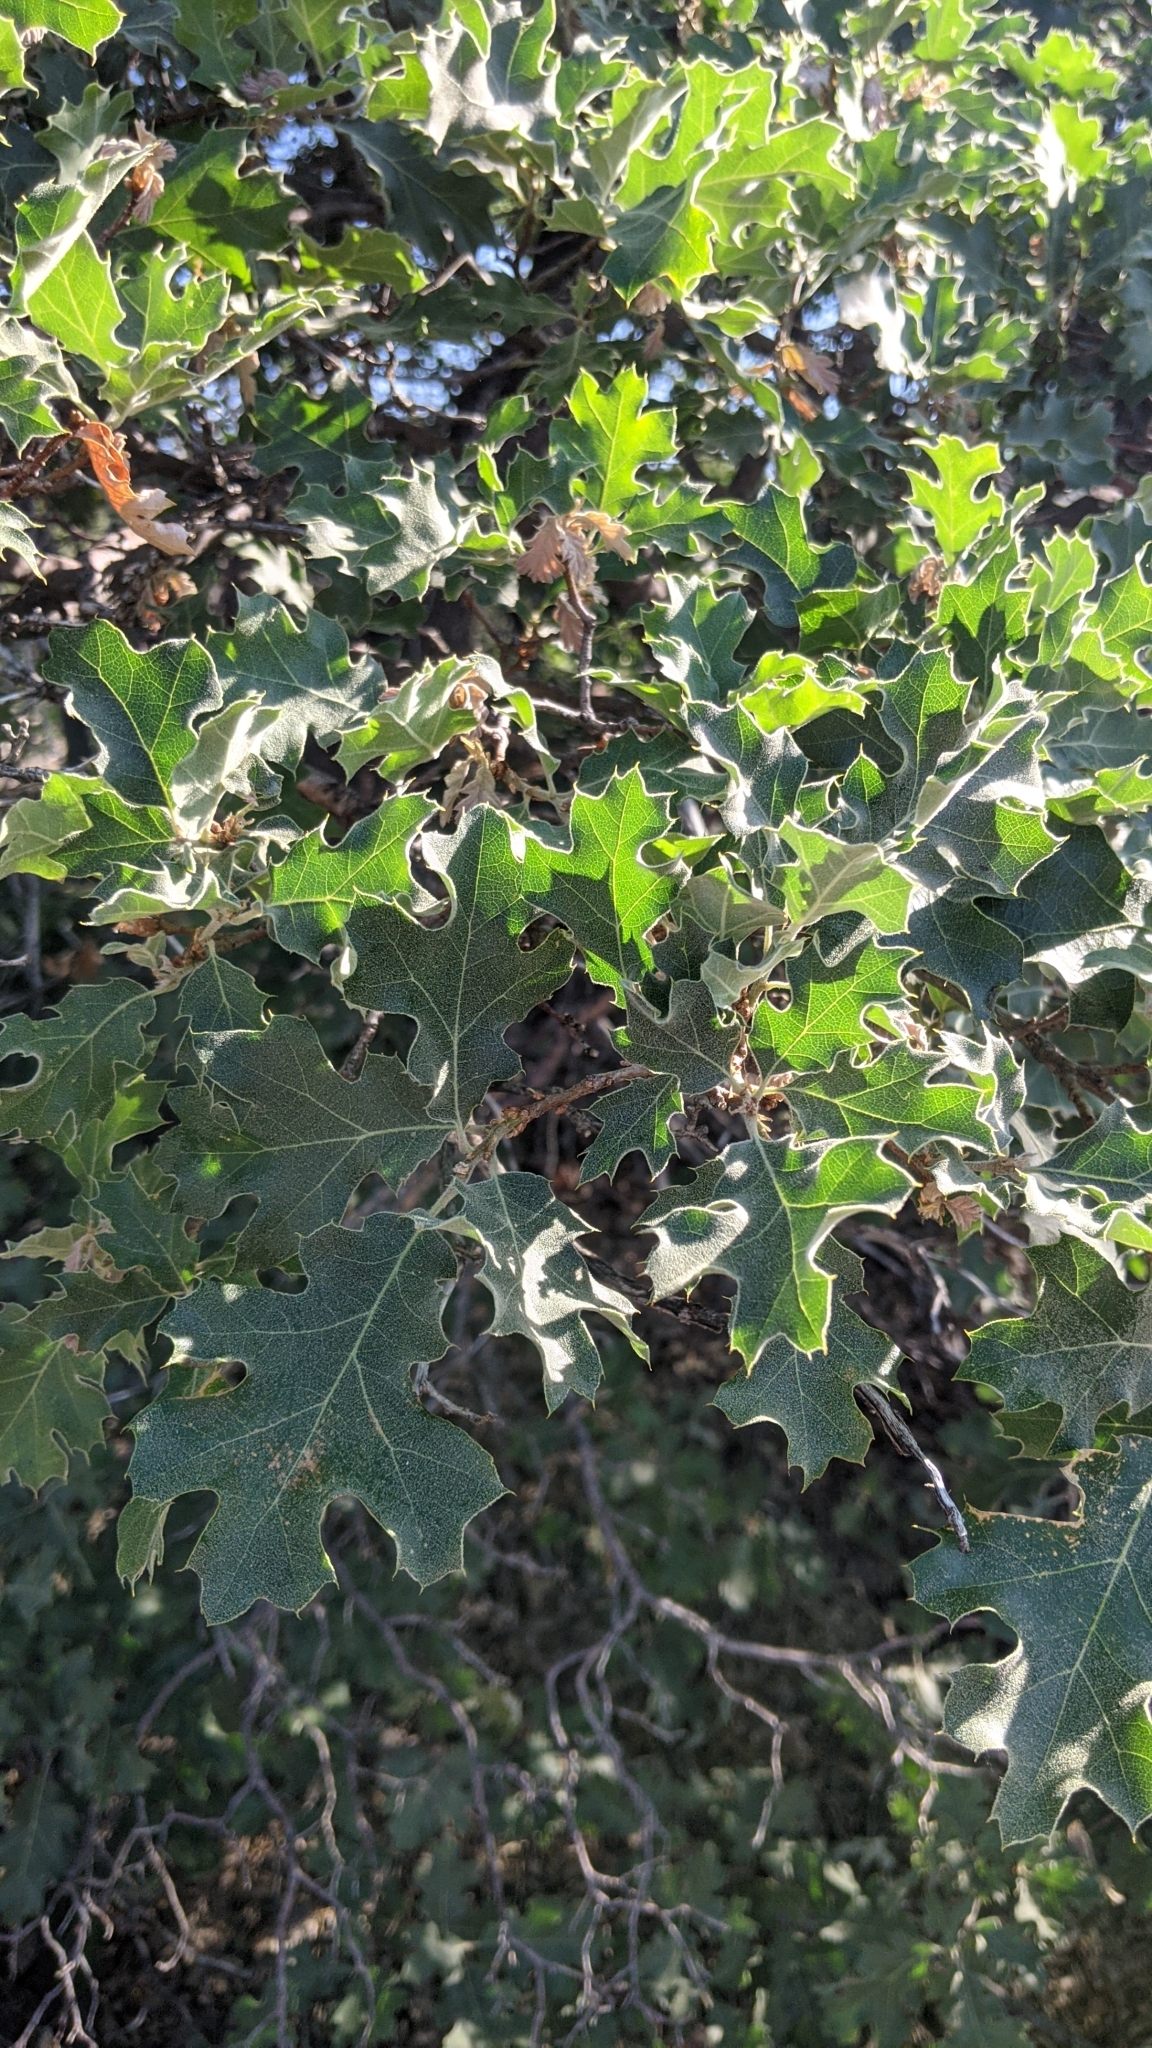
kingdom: Plantae
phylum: Tracheophyta
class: Magnoliopsida
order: Fagales
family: Fagaceae
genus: Quercus
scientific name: Quercus kelloggii
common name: California black oak
